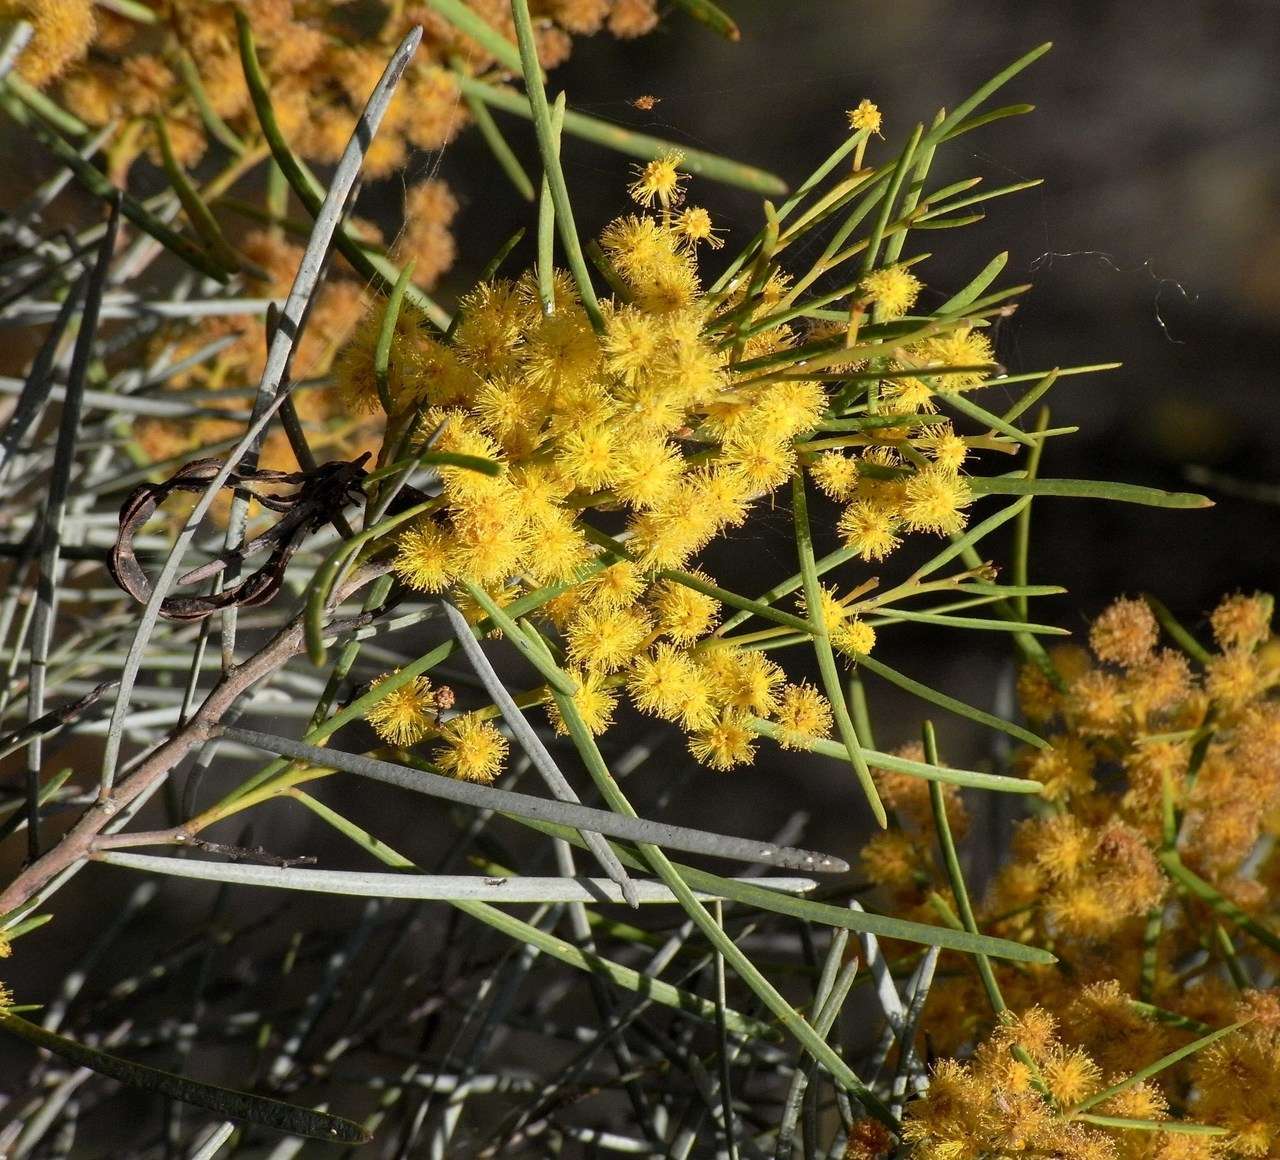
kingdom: Plantae
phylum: Tracheophyta
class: Magnoliopsida
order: Fabales
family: Fabaceae
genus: Acacia
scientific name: Acacia williamsonii
